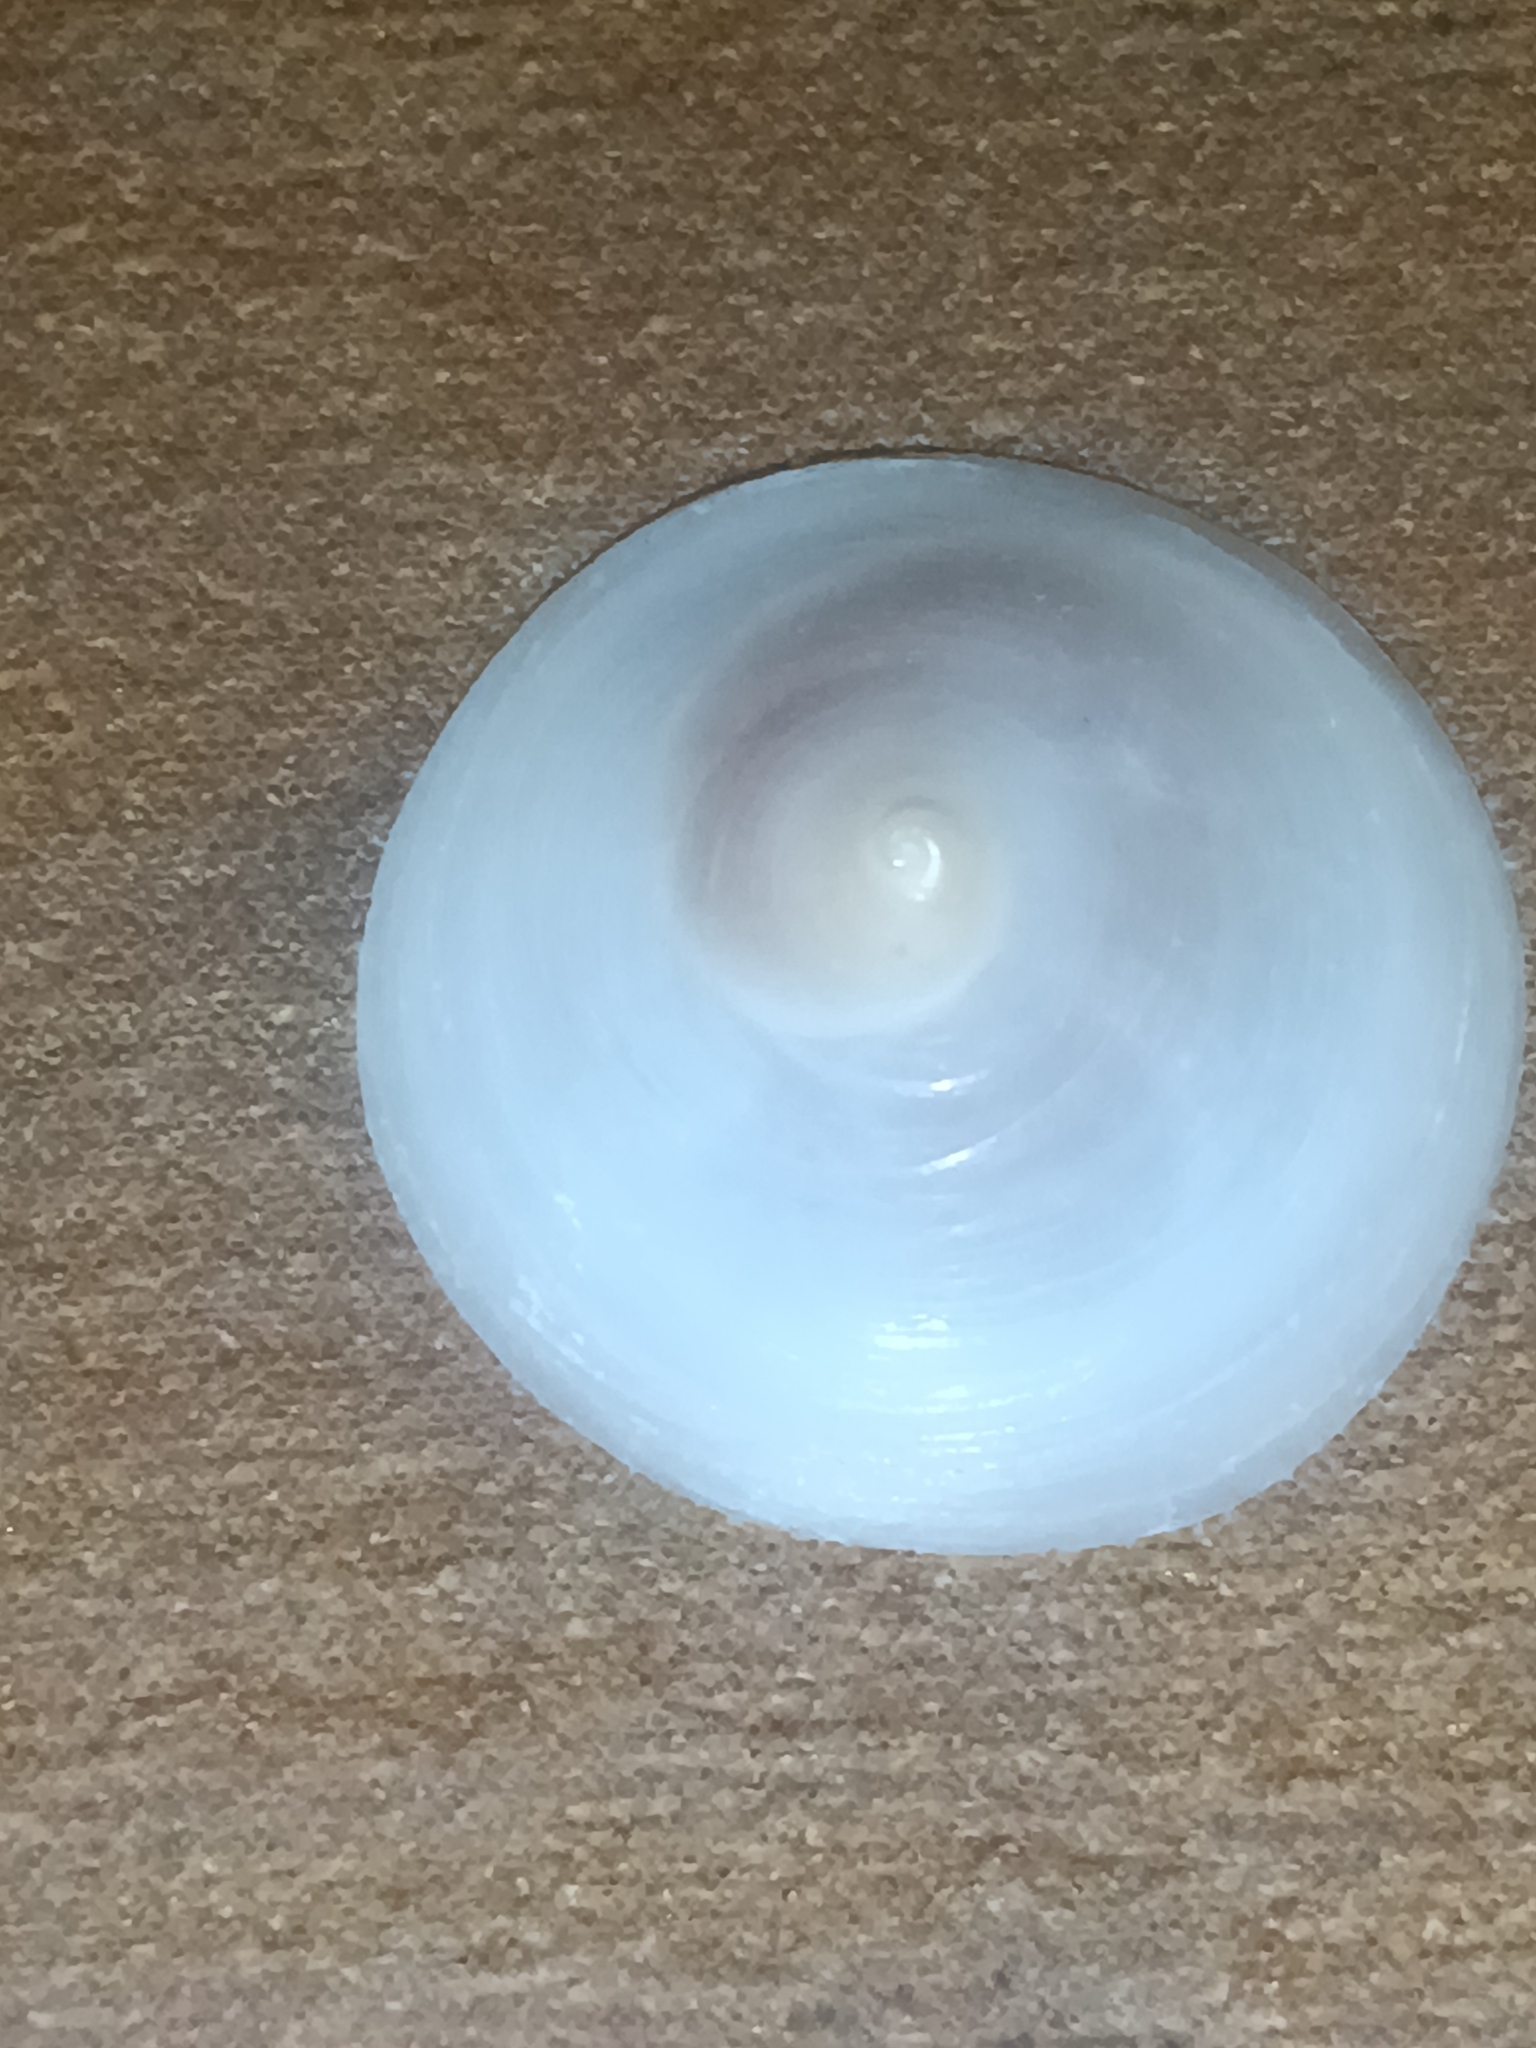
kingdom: Animalia
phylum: Mollusca
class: Gastropoda
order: Littorinimorpha
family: Calyptraeidae
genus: Calyptraea
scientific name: Calyptraea mamillaris
